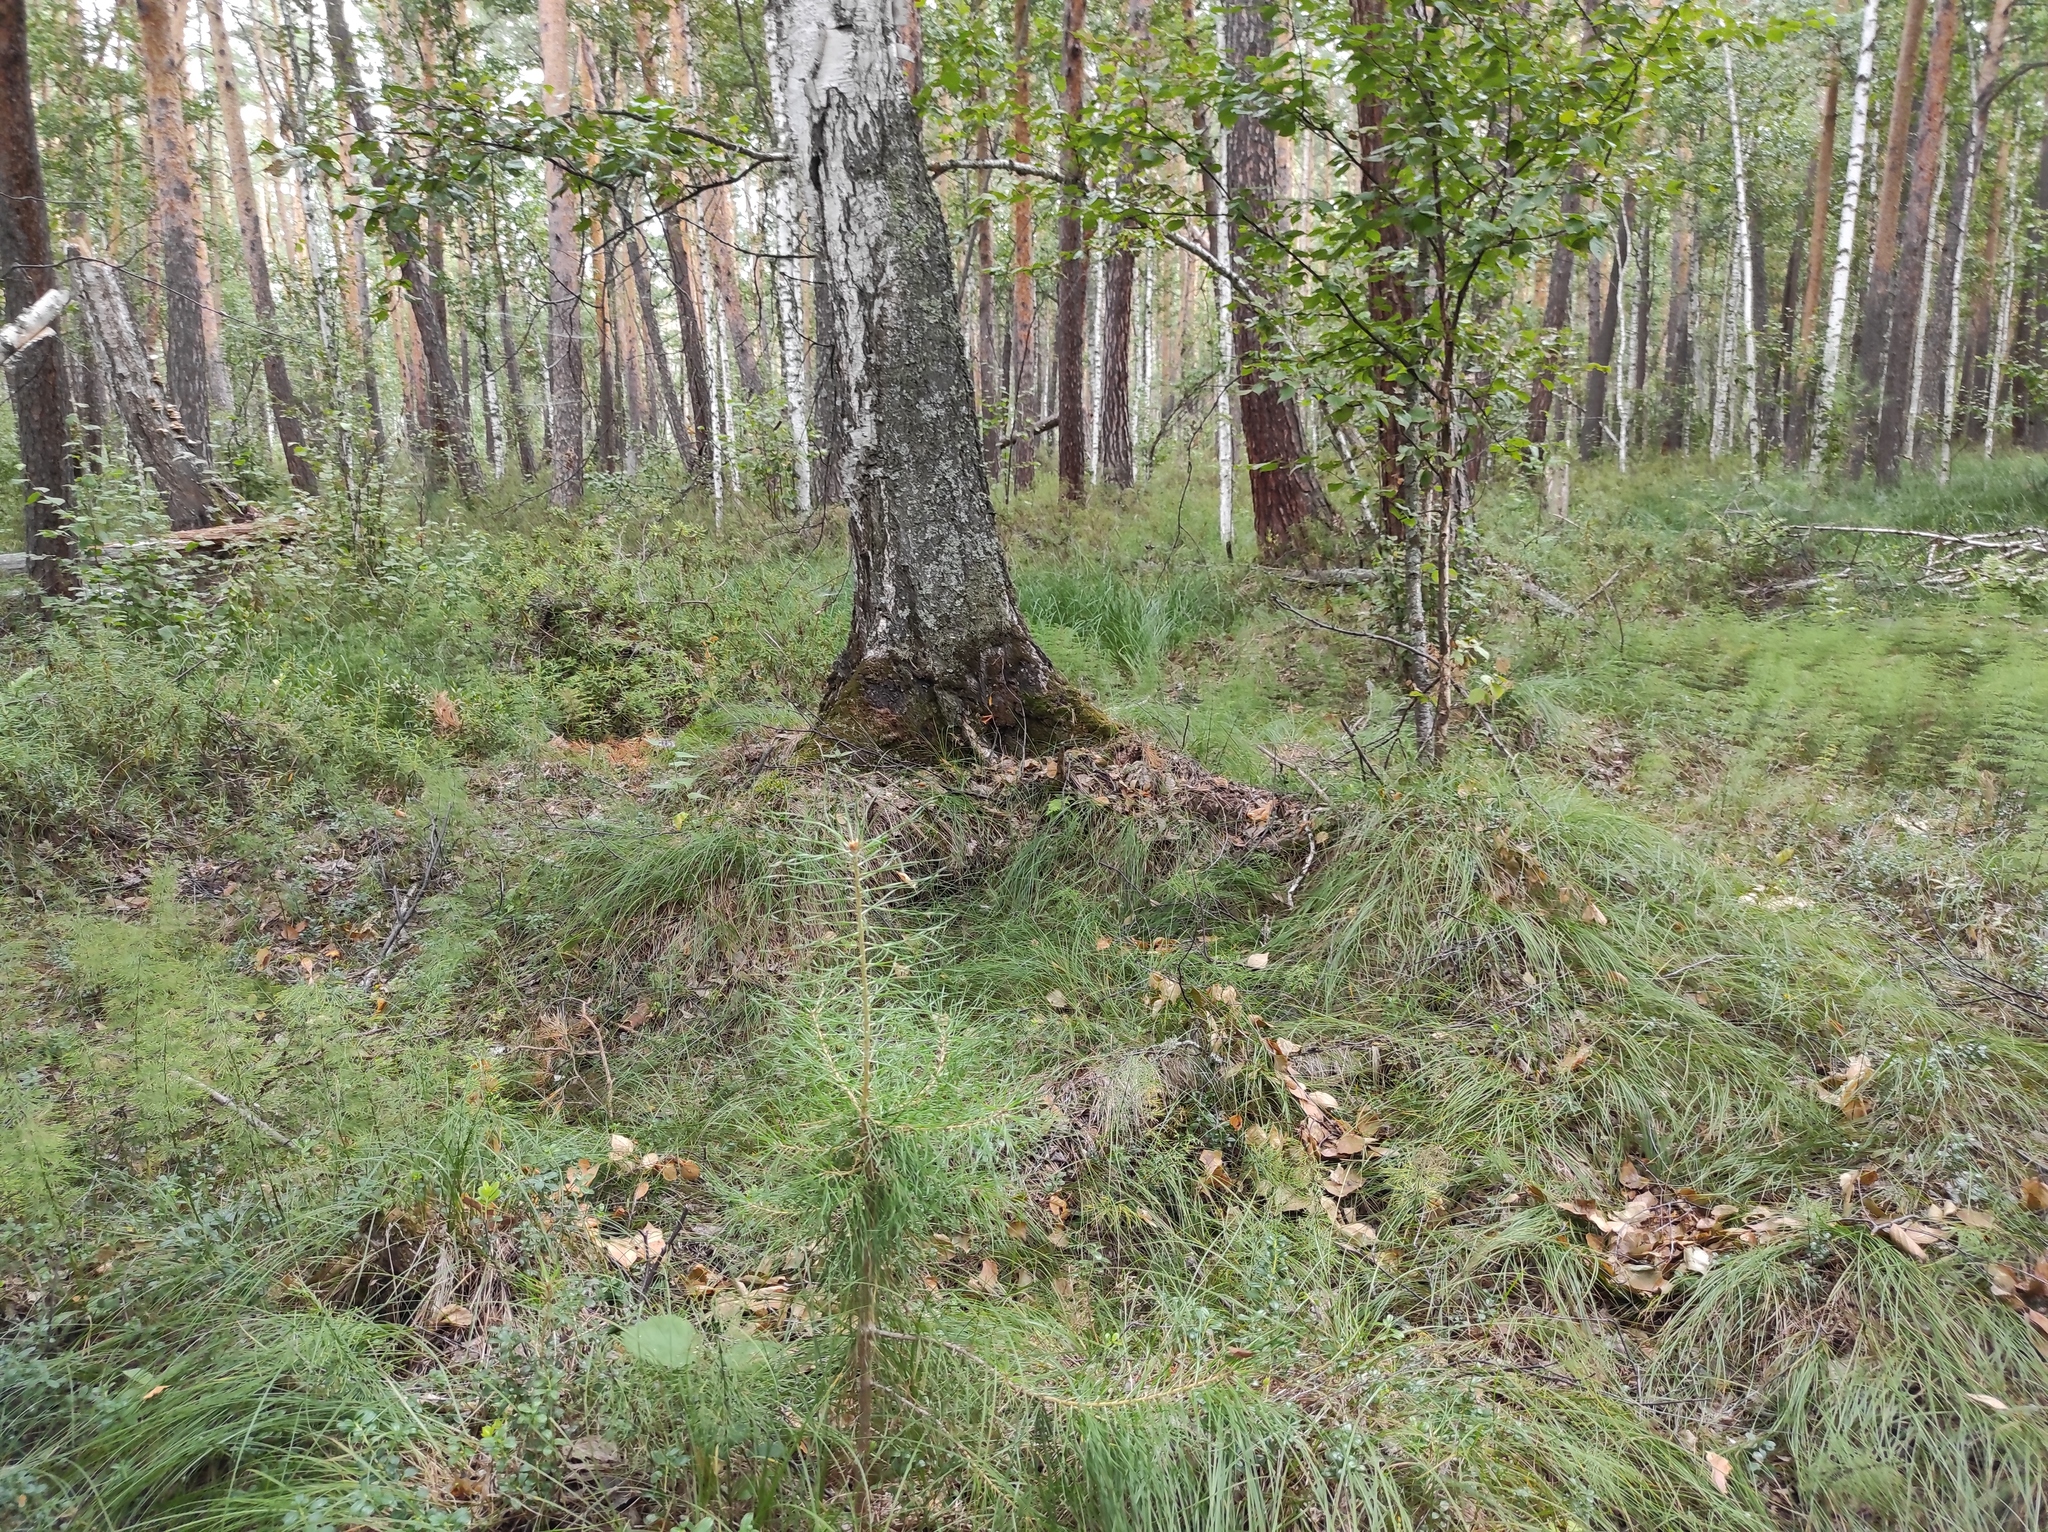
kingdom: Plantae
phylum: Tracheophyta
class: Magnoliopsida
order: Fagales
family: Betulaceae
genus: Betula
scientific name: Betula pubescens
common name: Downy birch
